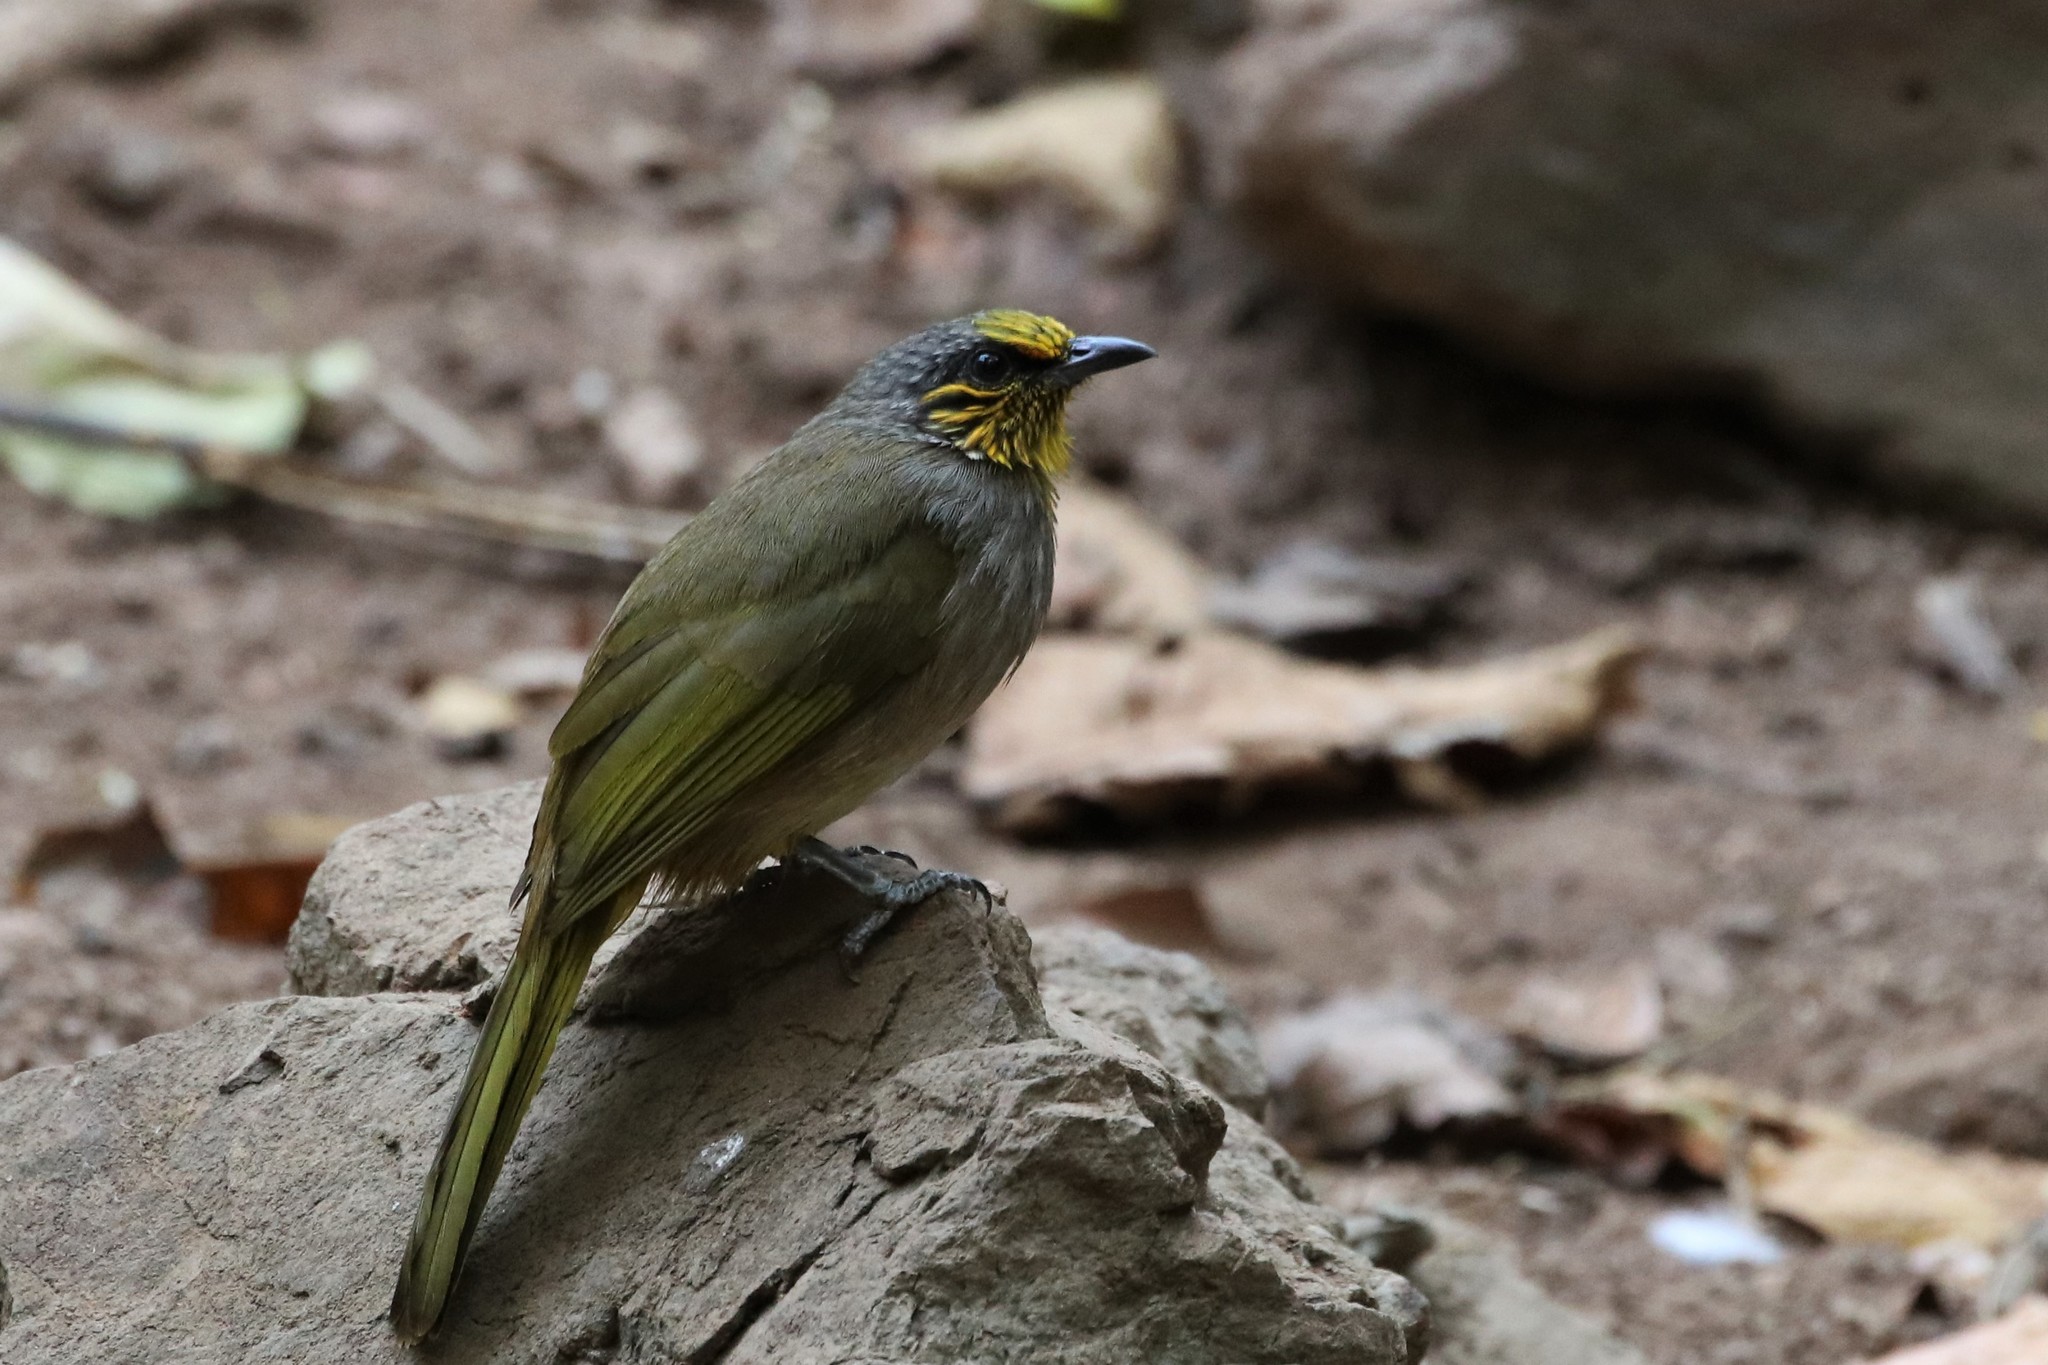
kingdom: Animalia
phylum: Chordata
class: Aves
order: Passeriformes
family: Pycnonotidae
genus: Pycnonotus
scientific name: Pycnonotus finlaysoni
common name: Stripe-throated bulbul
